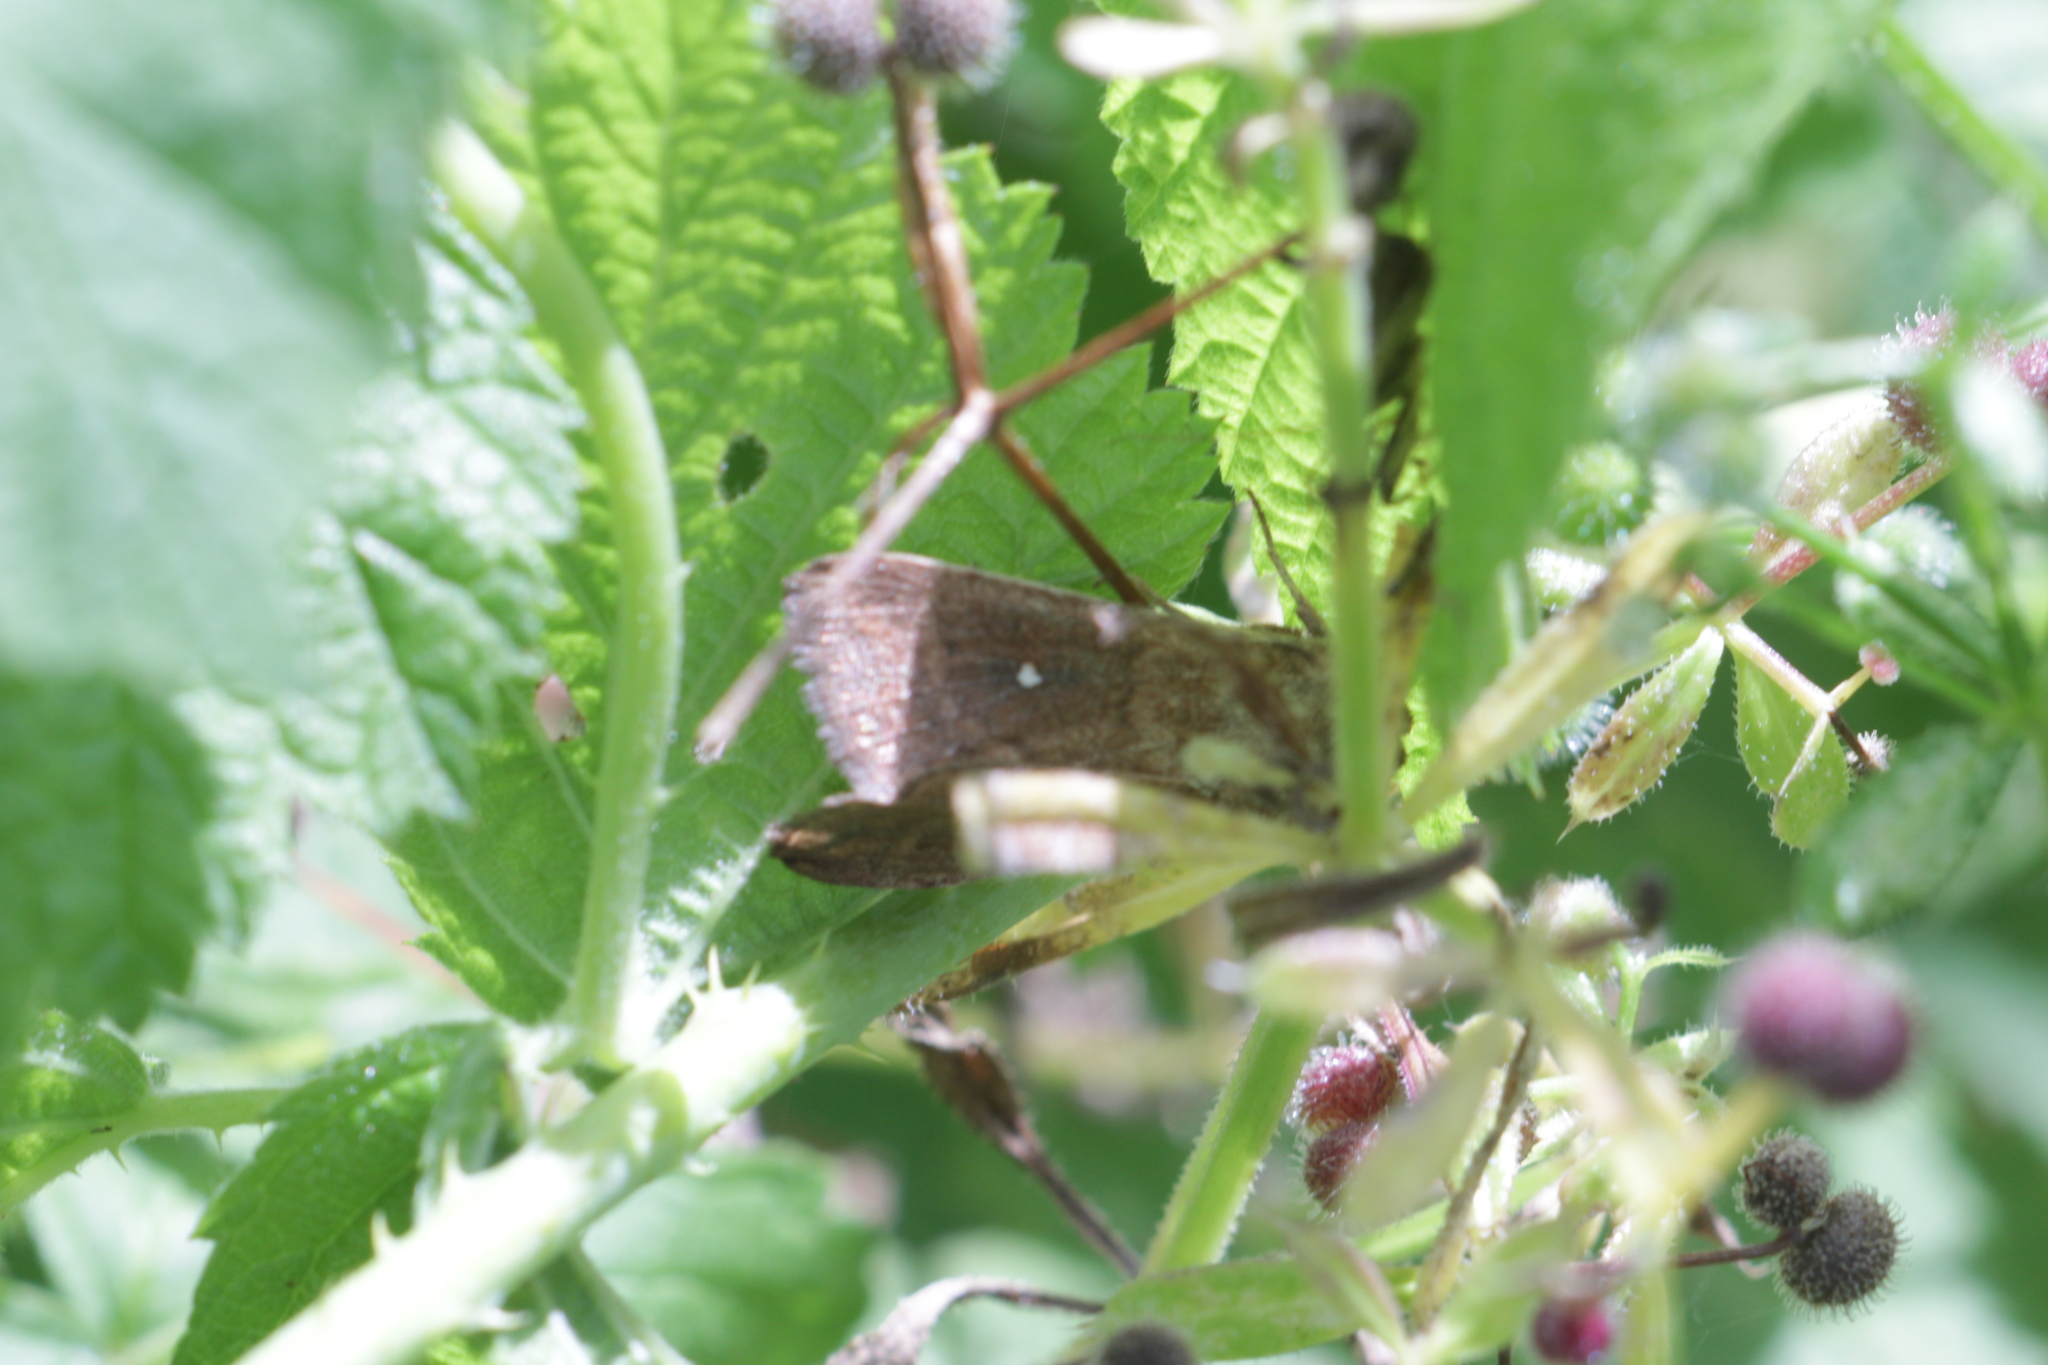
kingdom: Animalia
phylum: Arthropoda
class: Insecta
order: Lepidoptera
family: Noctuidae
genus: Mythimna
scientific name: Mythimna albipuncta
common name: White-point
